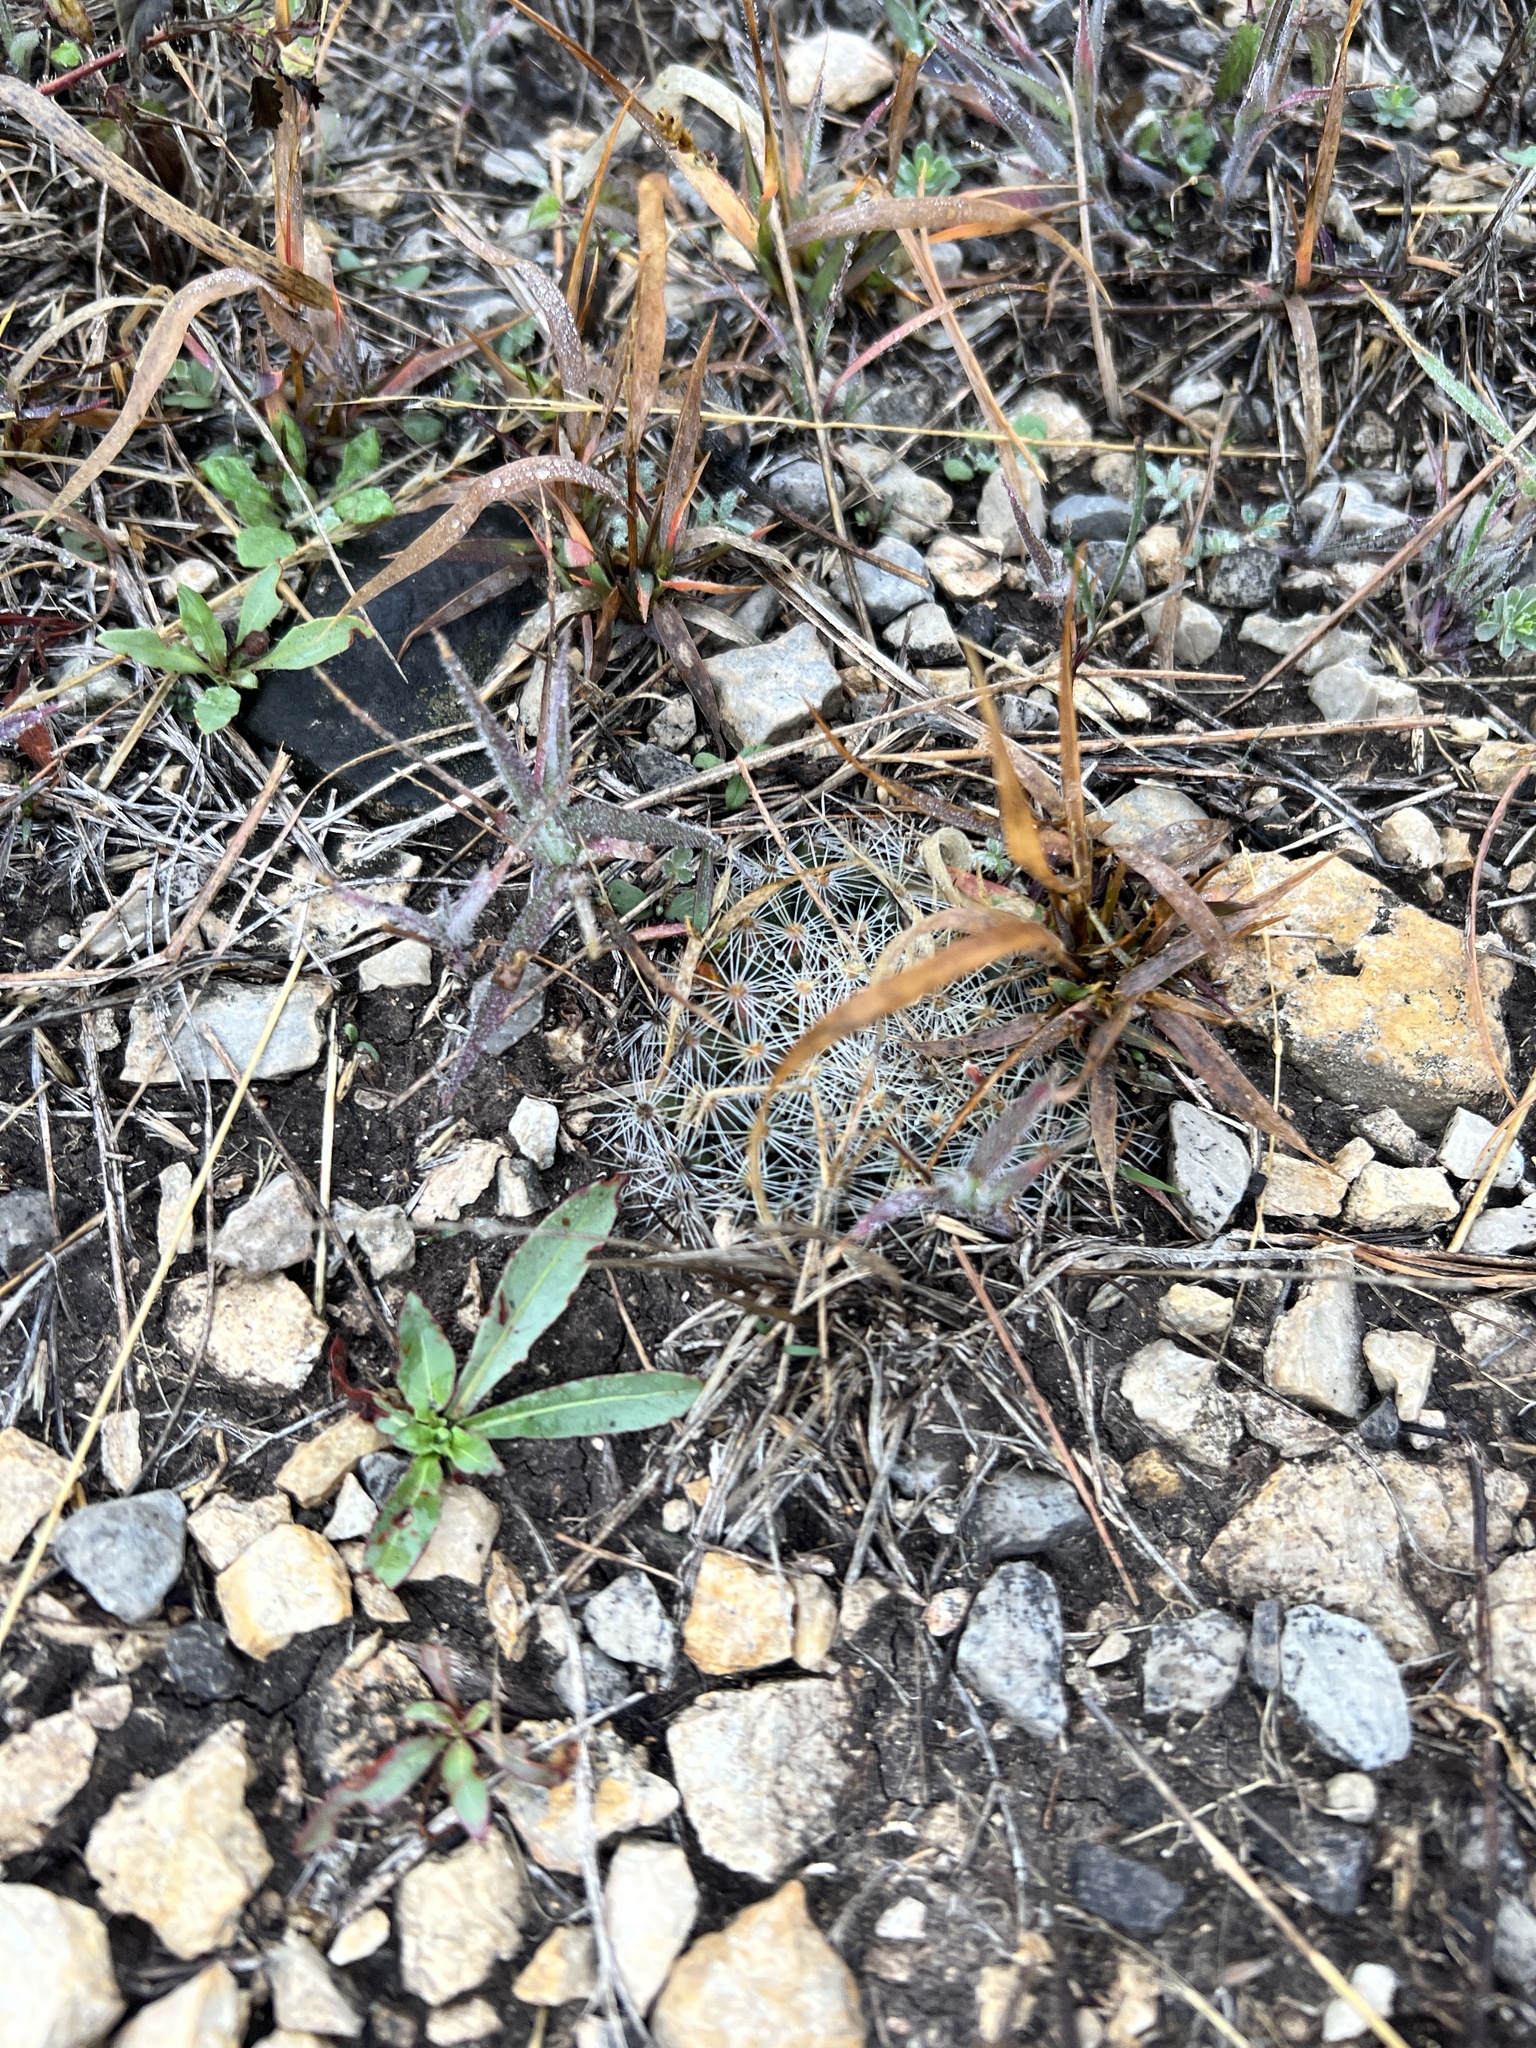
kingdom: Plantae
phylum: Tracheophyta
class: Magnoliopsida
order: Caryophyllales
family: Cactaceae
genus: Mammillaria
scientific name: Mammillaria heyderi
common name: Little nipple cactus
